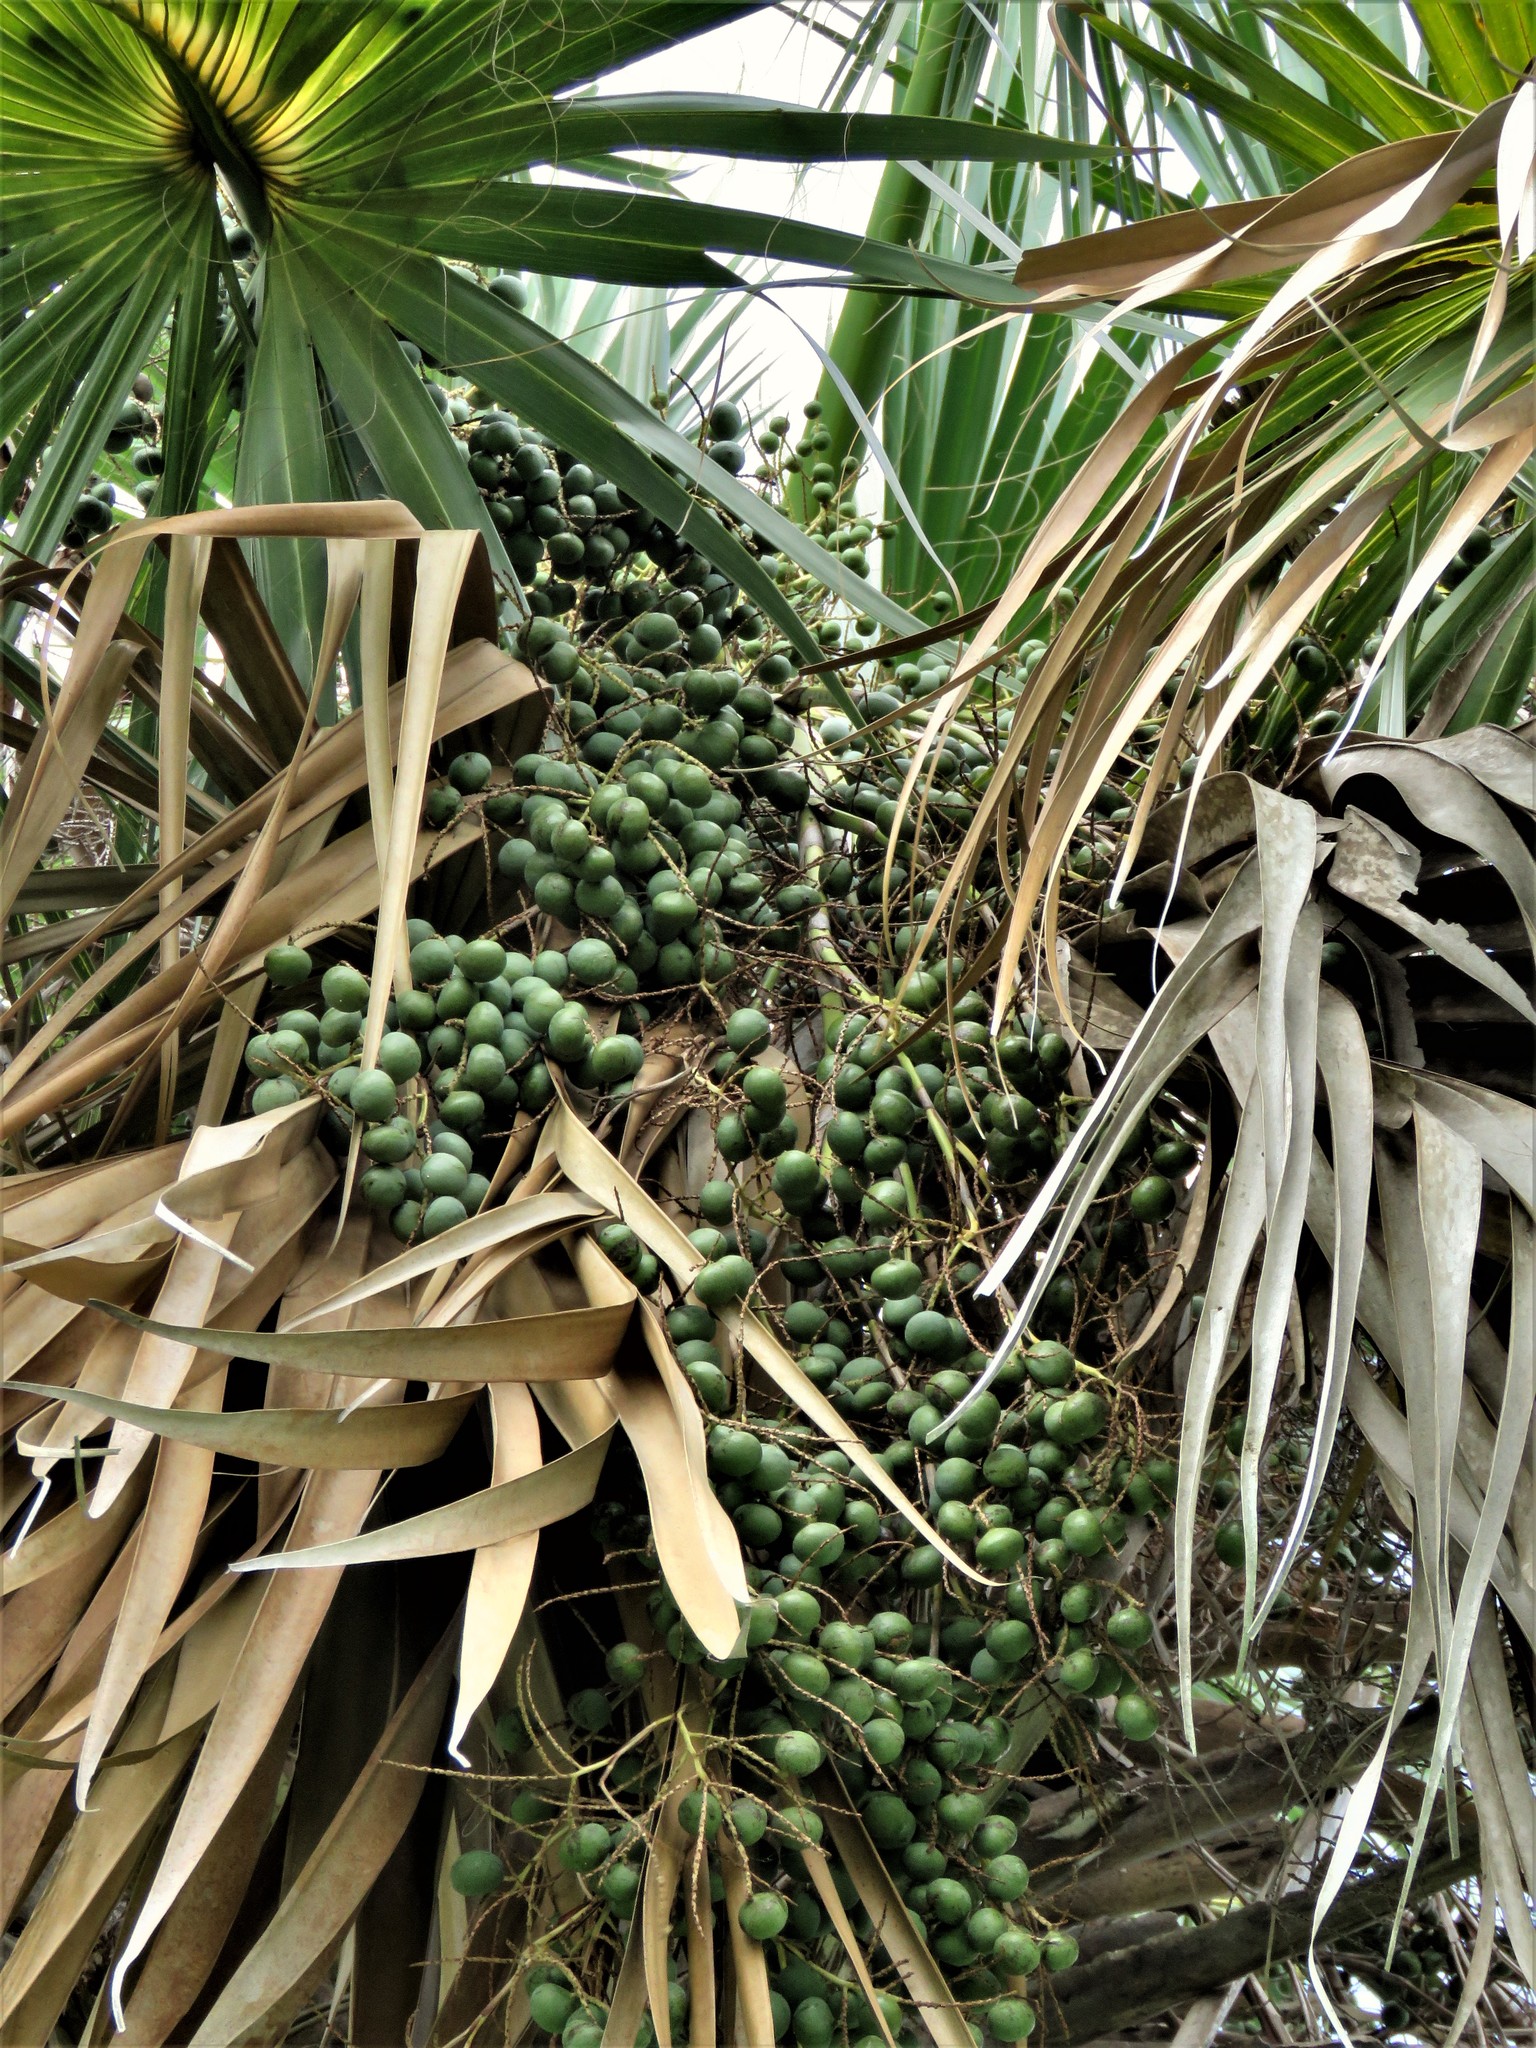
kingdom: Plantae
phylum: Tracheophyta
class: Liliopsida
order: Arecales
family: Arecaceae
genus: Sabal
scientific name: Sabal mexicana
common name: Texas palmetto
